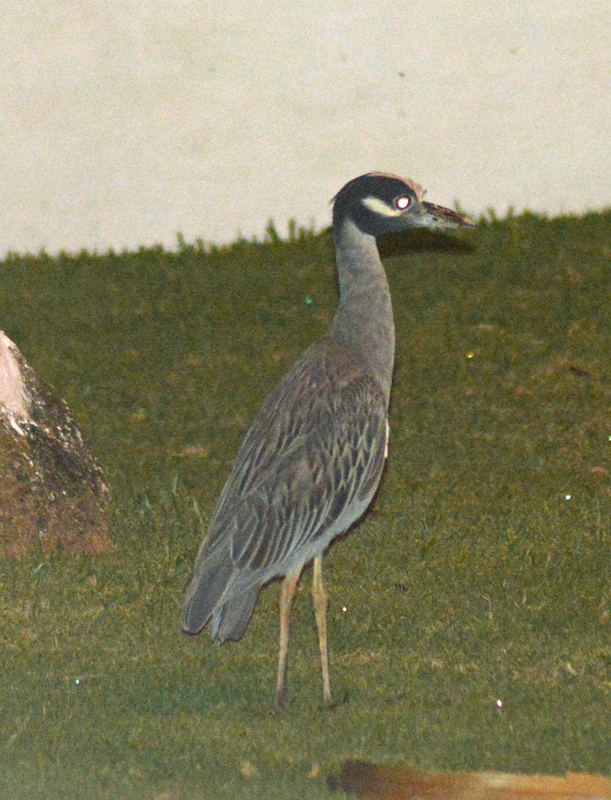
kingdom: Animalia
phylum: Chordata
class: Aves
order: Pelecaniformes
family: Ardeidae
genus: Nyctanassa
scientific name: Nyctanassa violacea
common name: Yellow-crowned night heron
